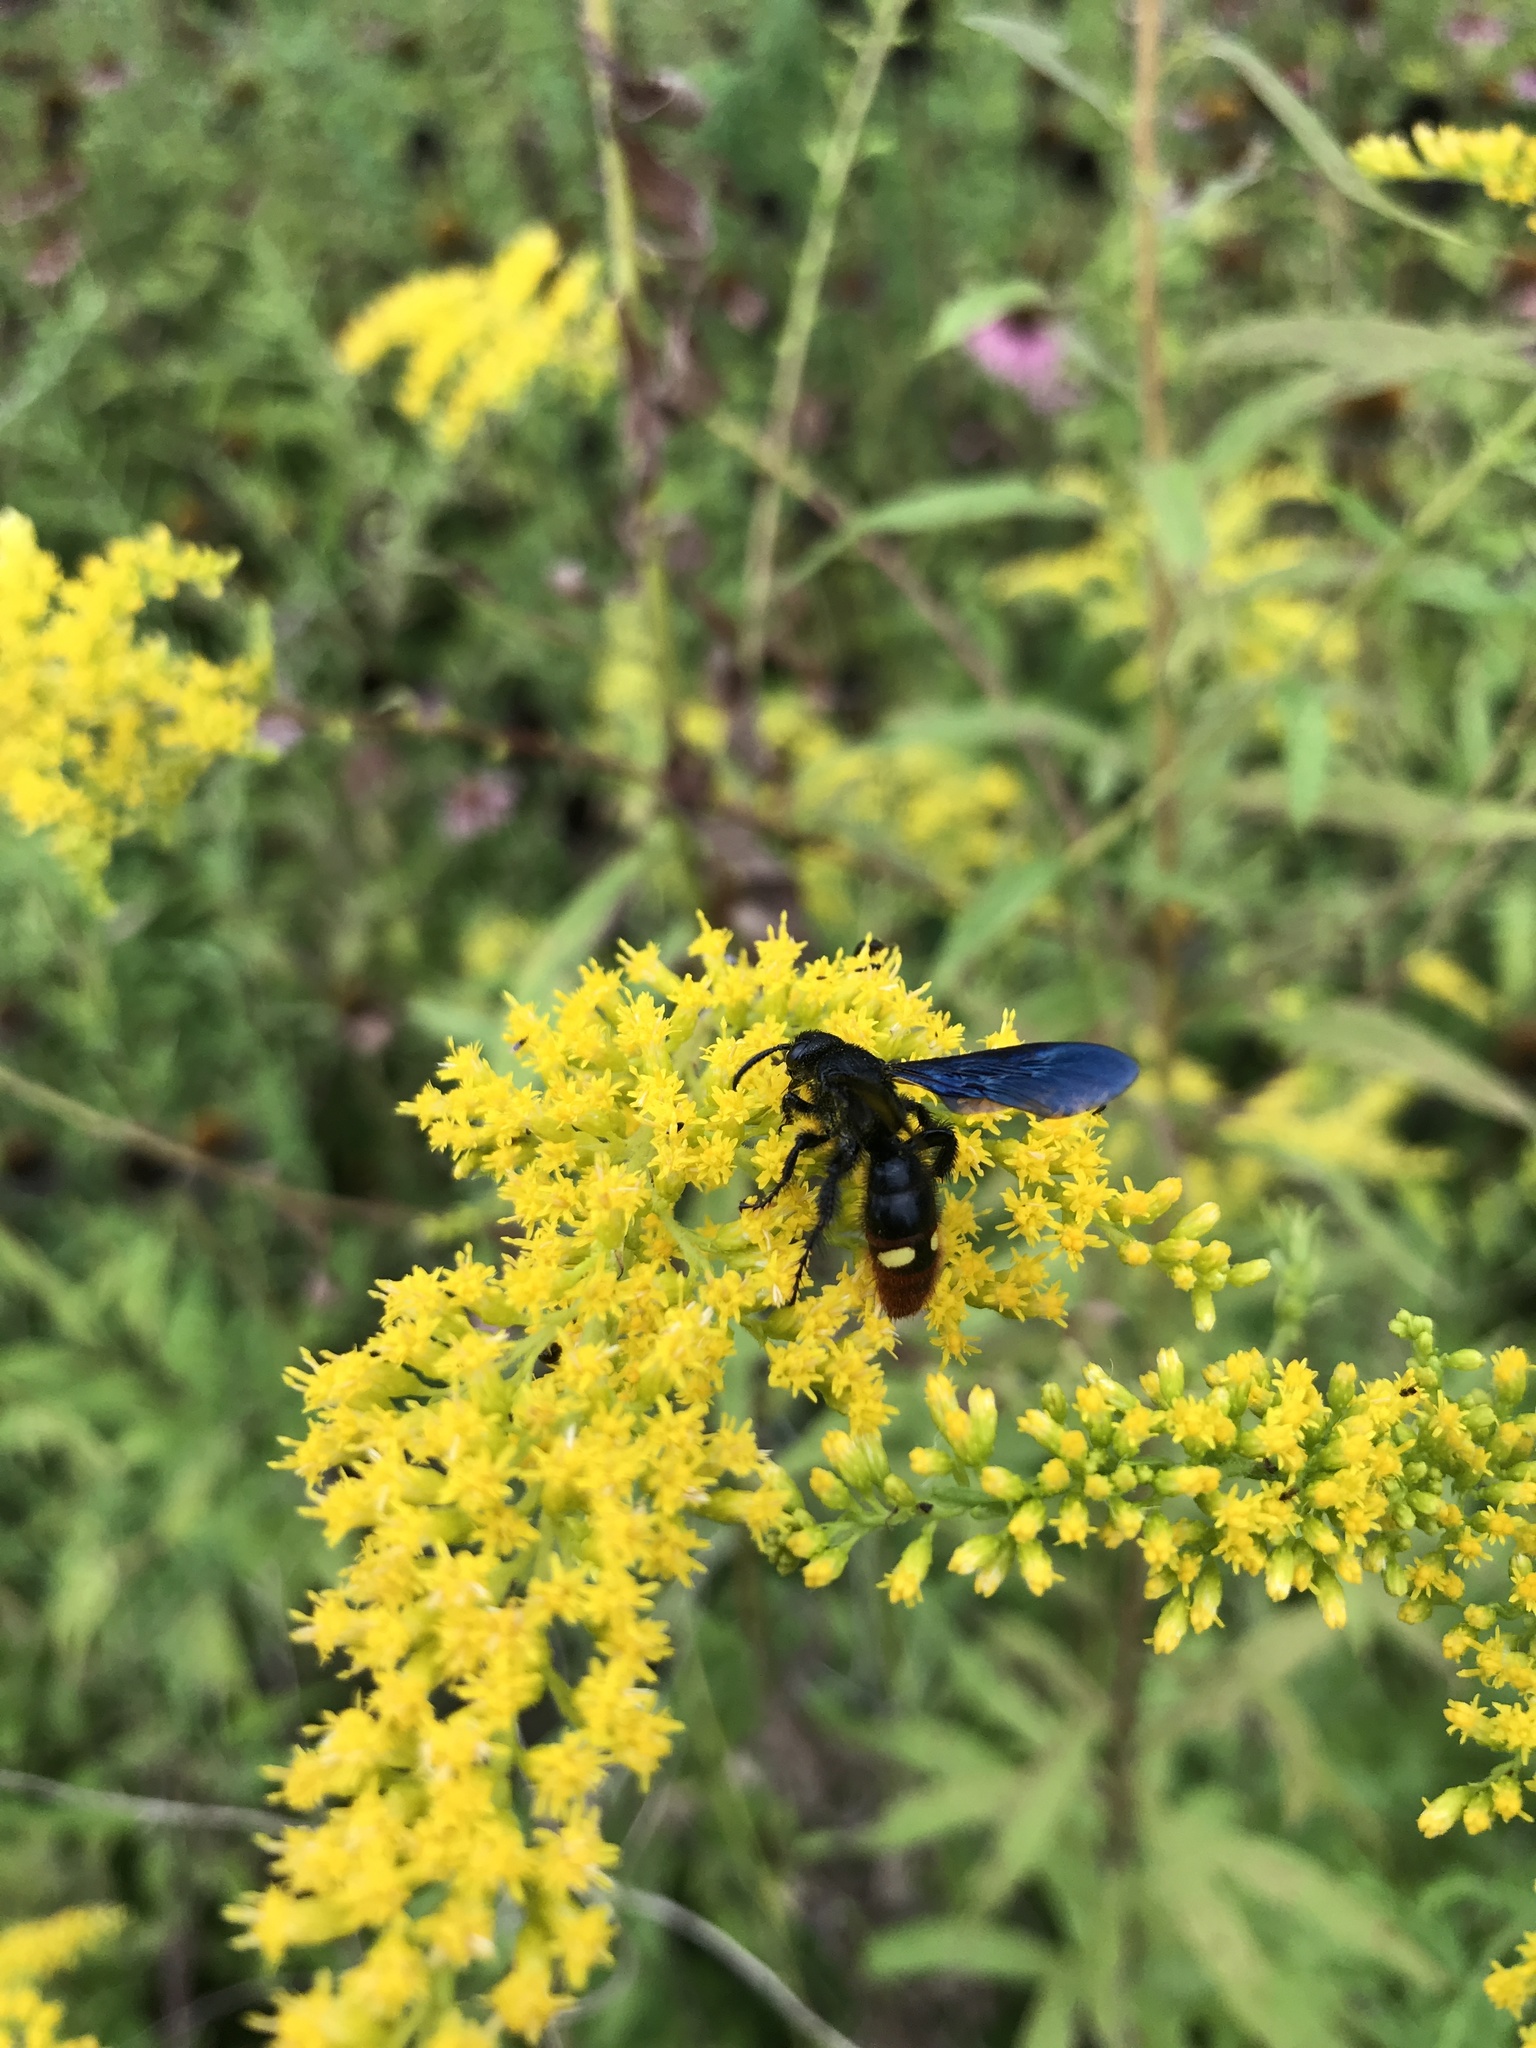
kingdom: Animalia
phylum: Arthropoda
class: Insecta
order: Hymenoptera
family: Scoliidae
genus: Scolia
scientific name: Scolia dubia
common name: Blue-winged scoliid wasp
